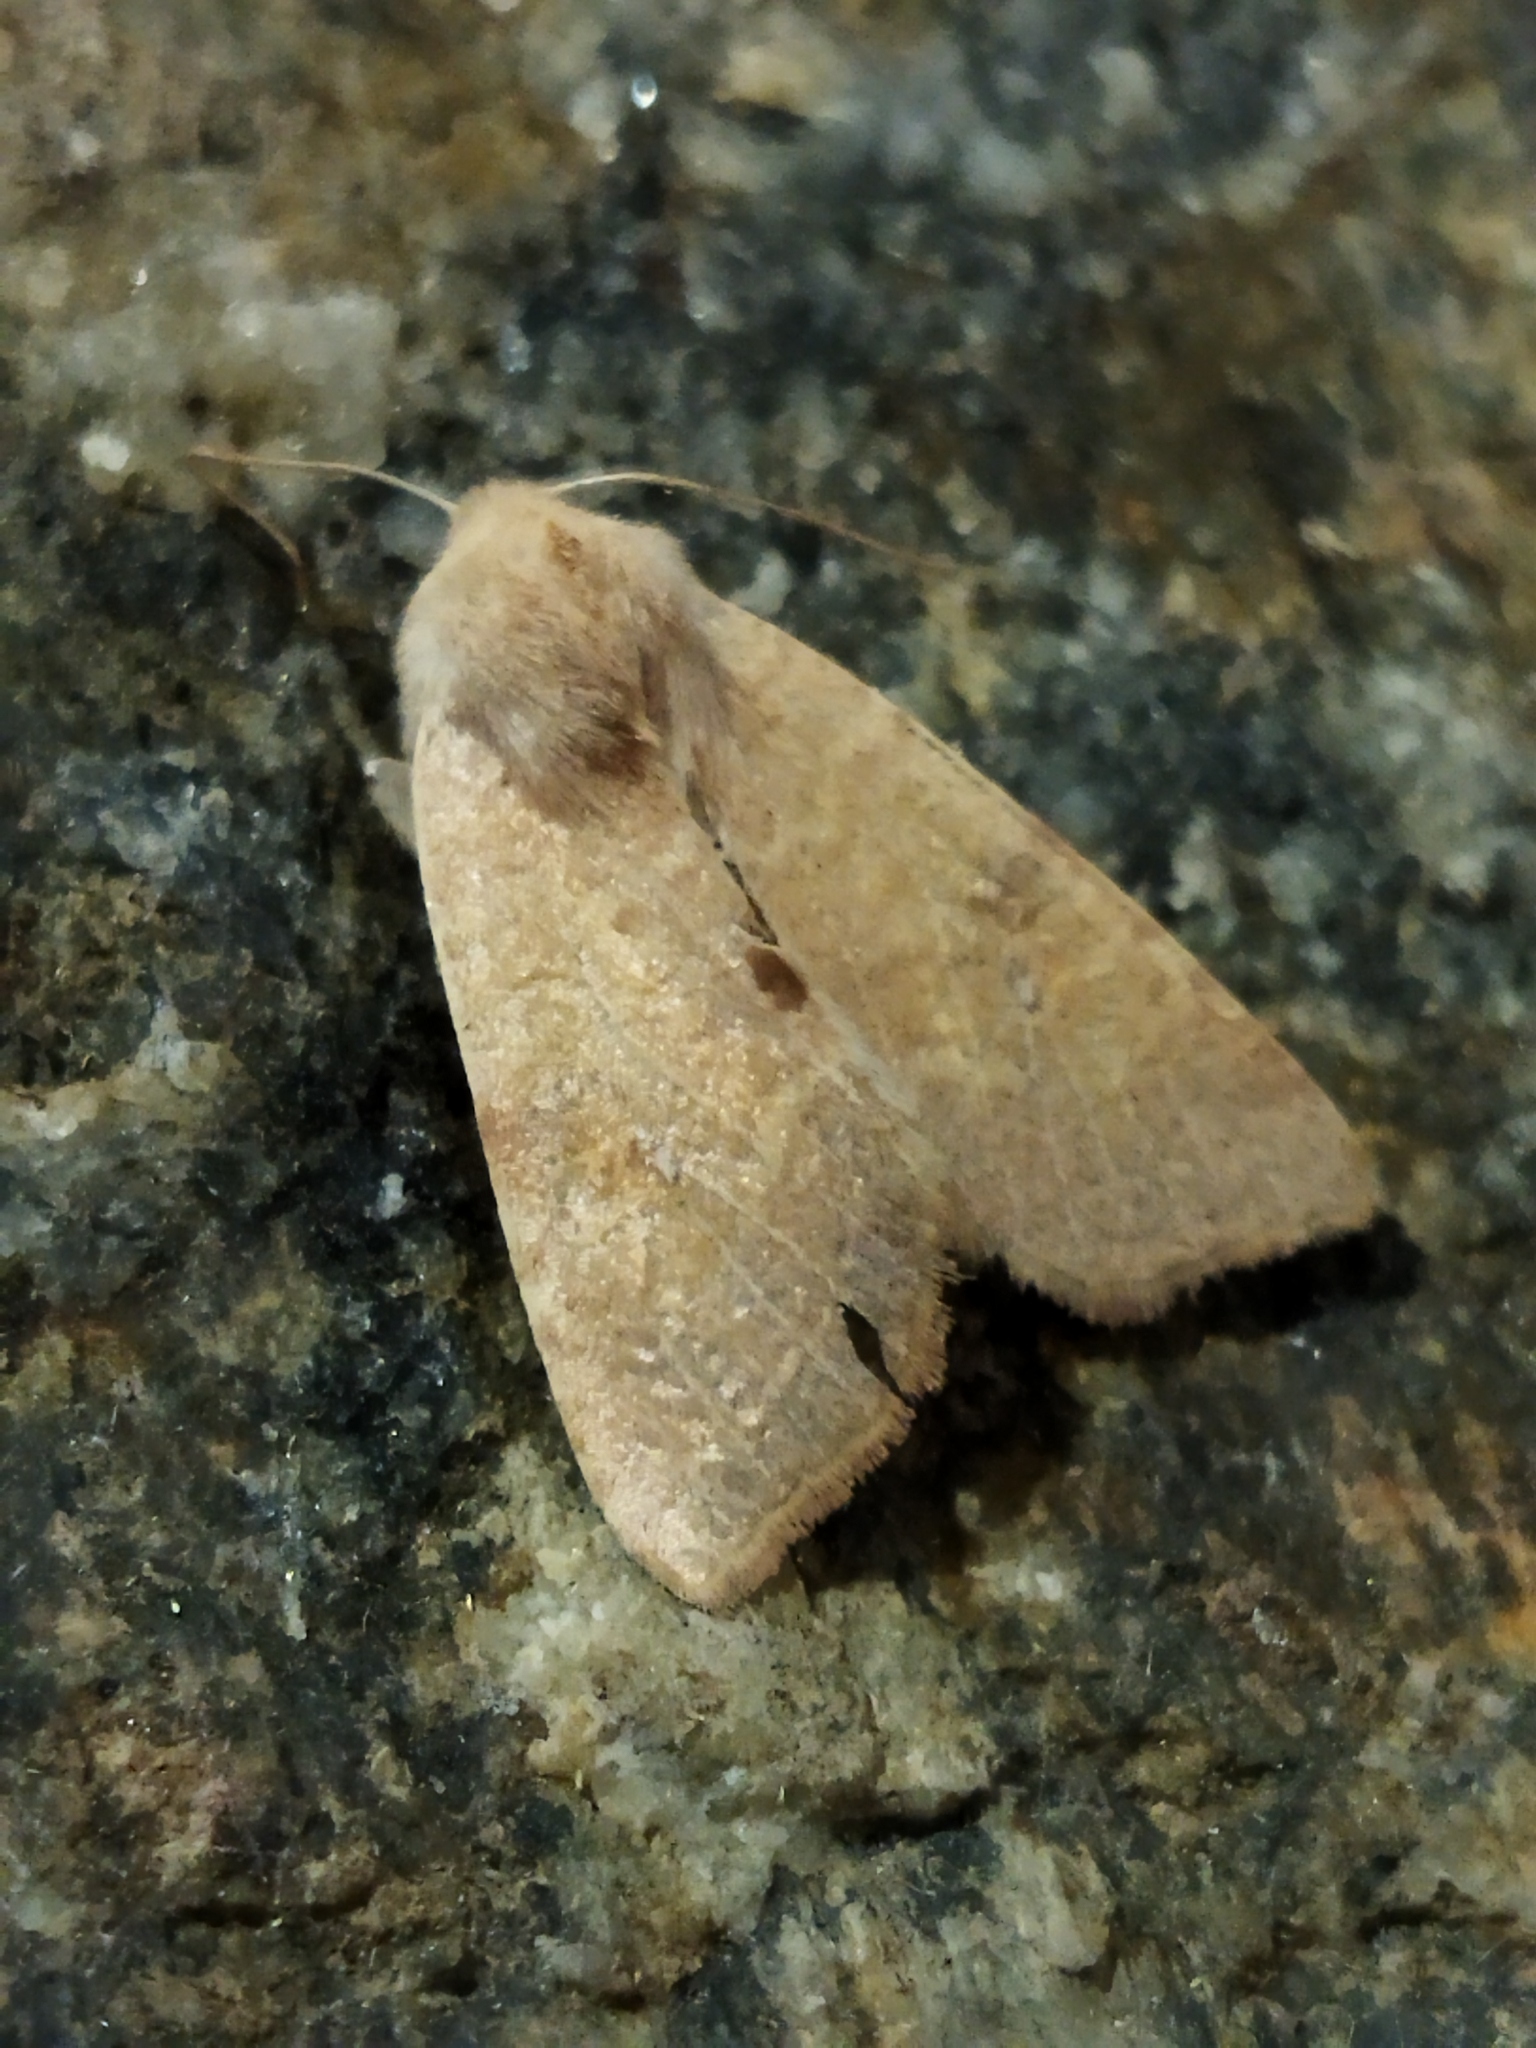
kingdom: Animalia
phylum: Arthropoda
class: Insecta
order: Lepidoptera
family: Noctuidae
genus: Xanthia
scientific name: Xanthia ocellaris
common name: Pale-lemon sallow
